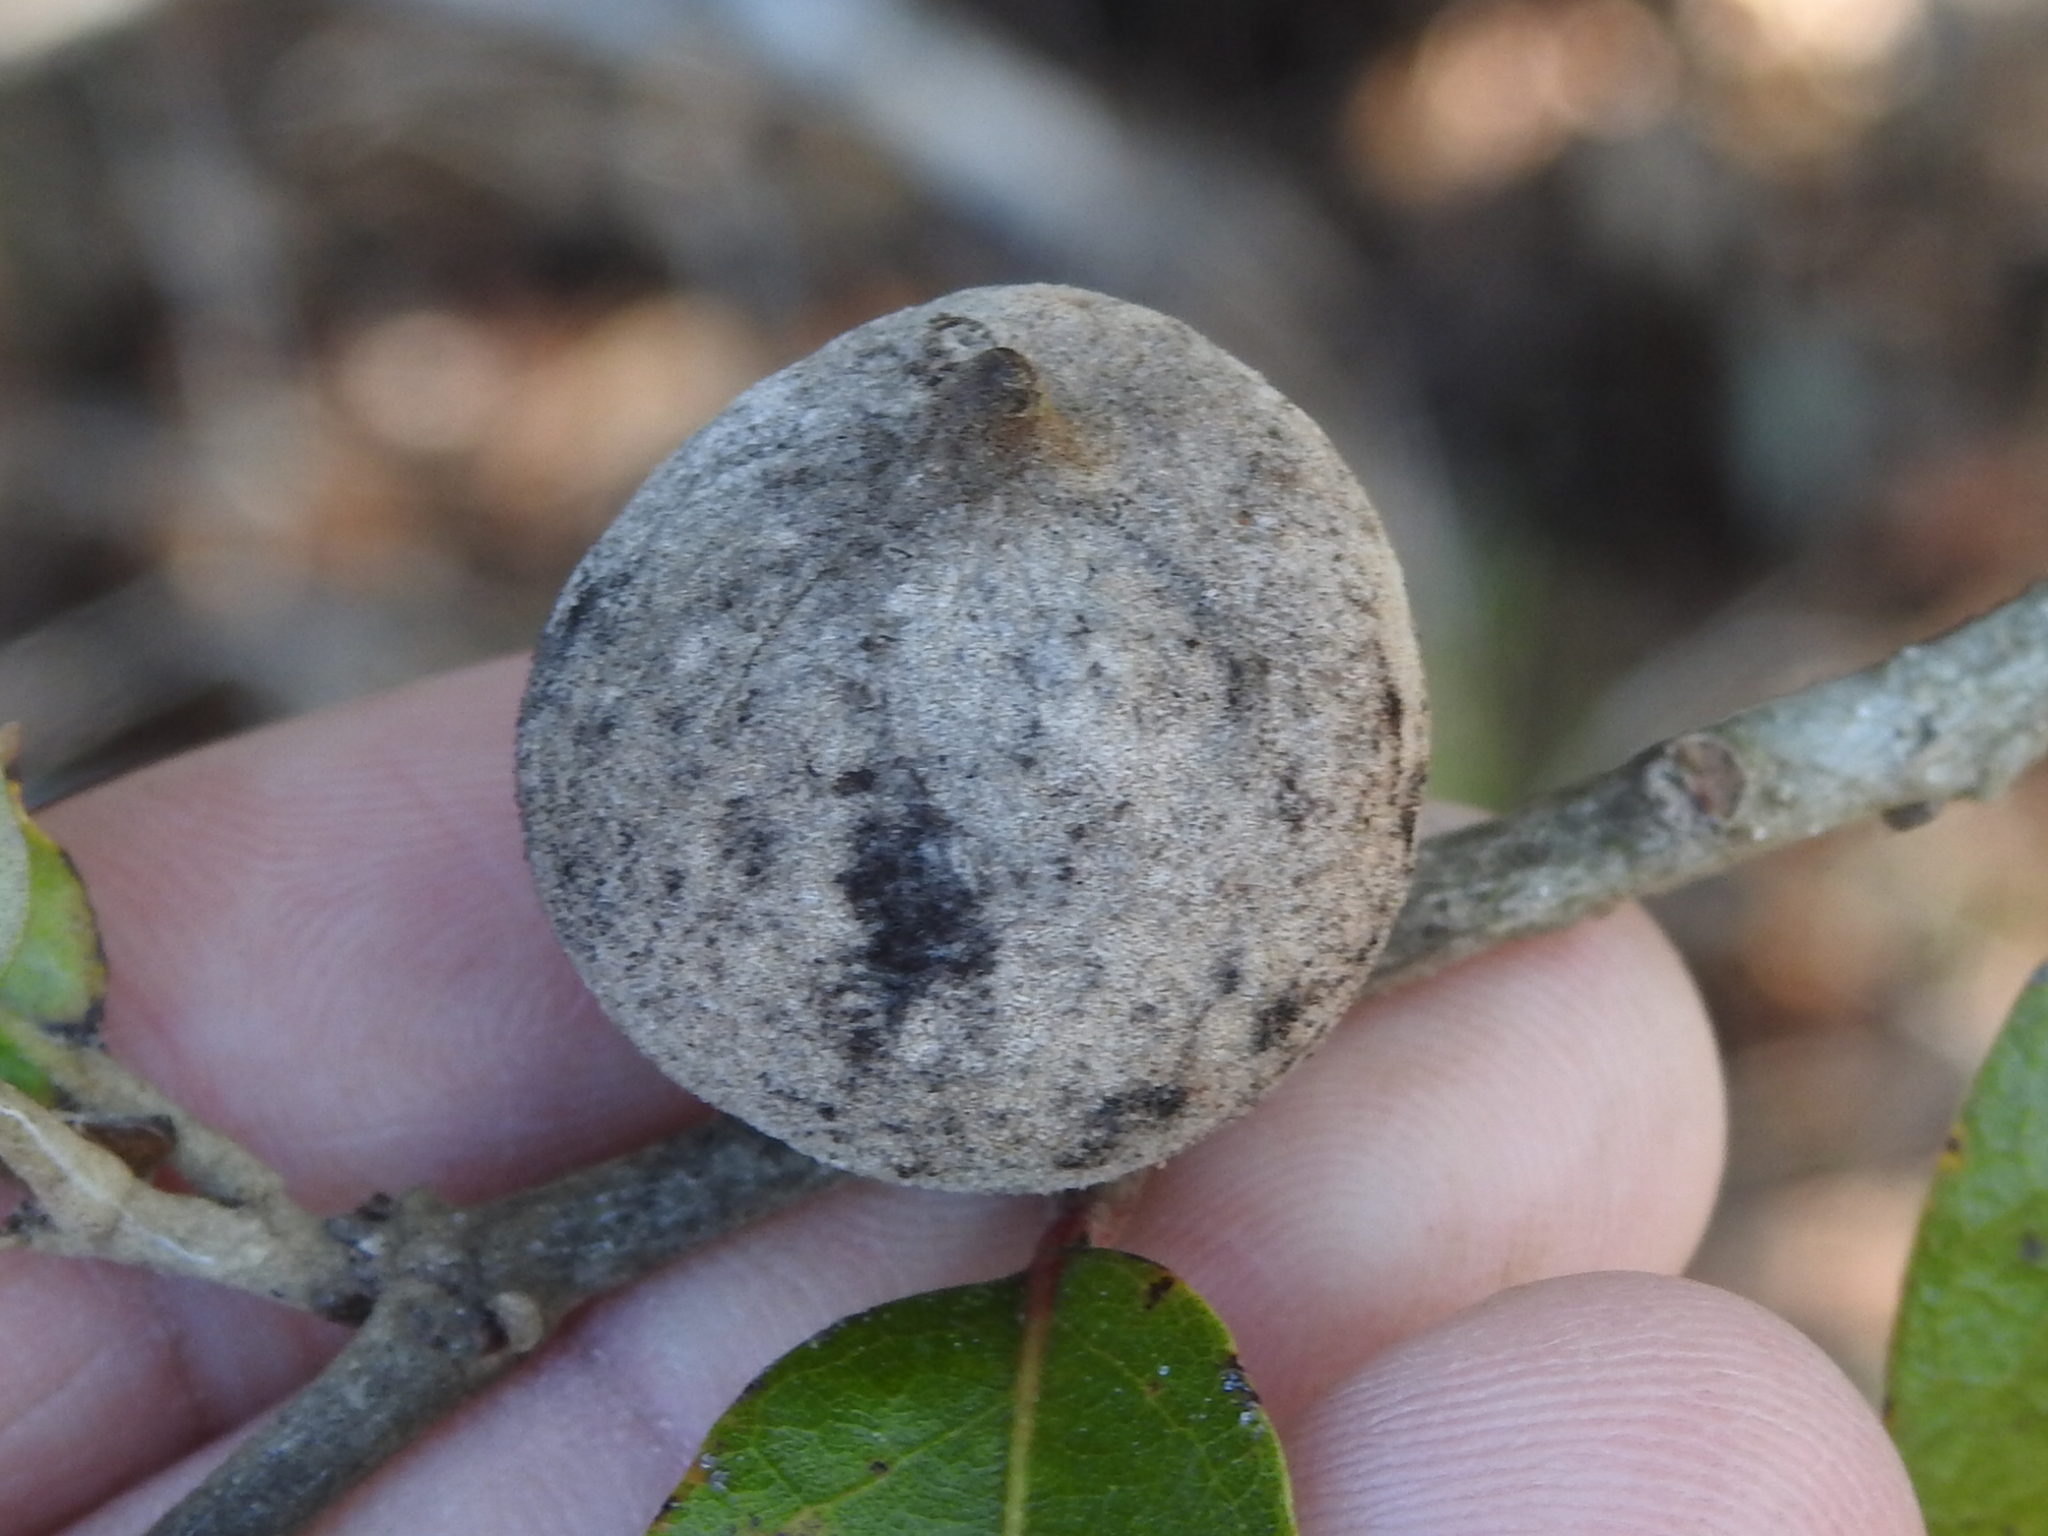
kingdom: Animalia
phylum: Arthropoda
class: Insecta
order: Hymenoptera
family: Cynipidae
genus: Disholcaspis
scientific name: Disholcaspis
